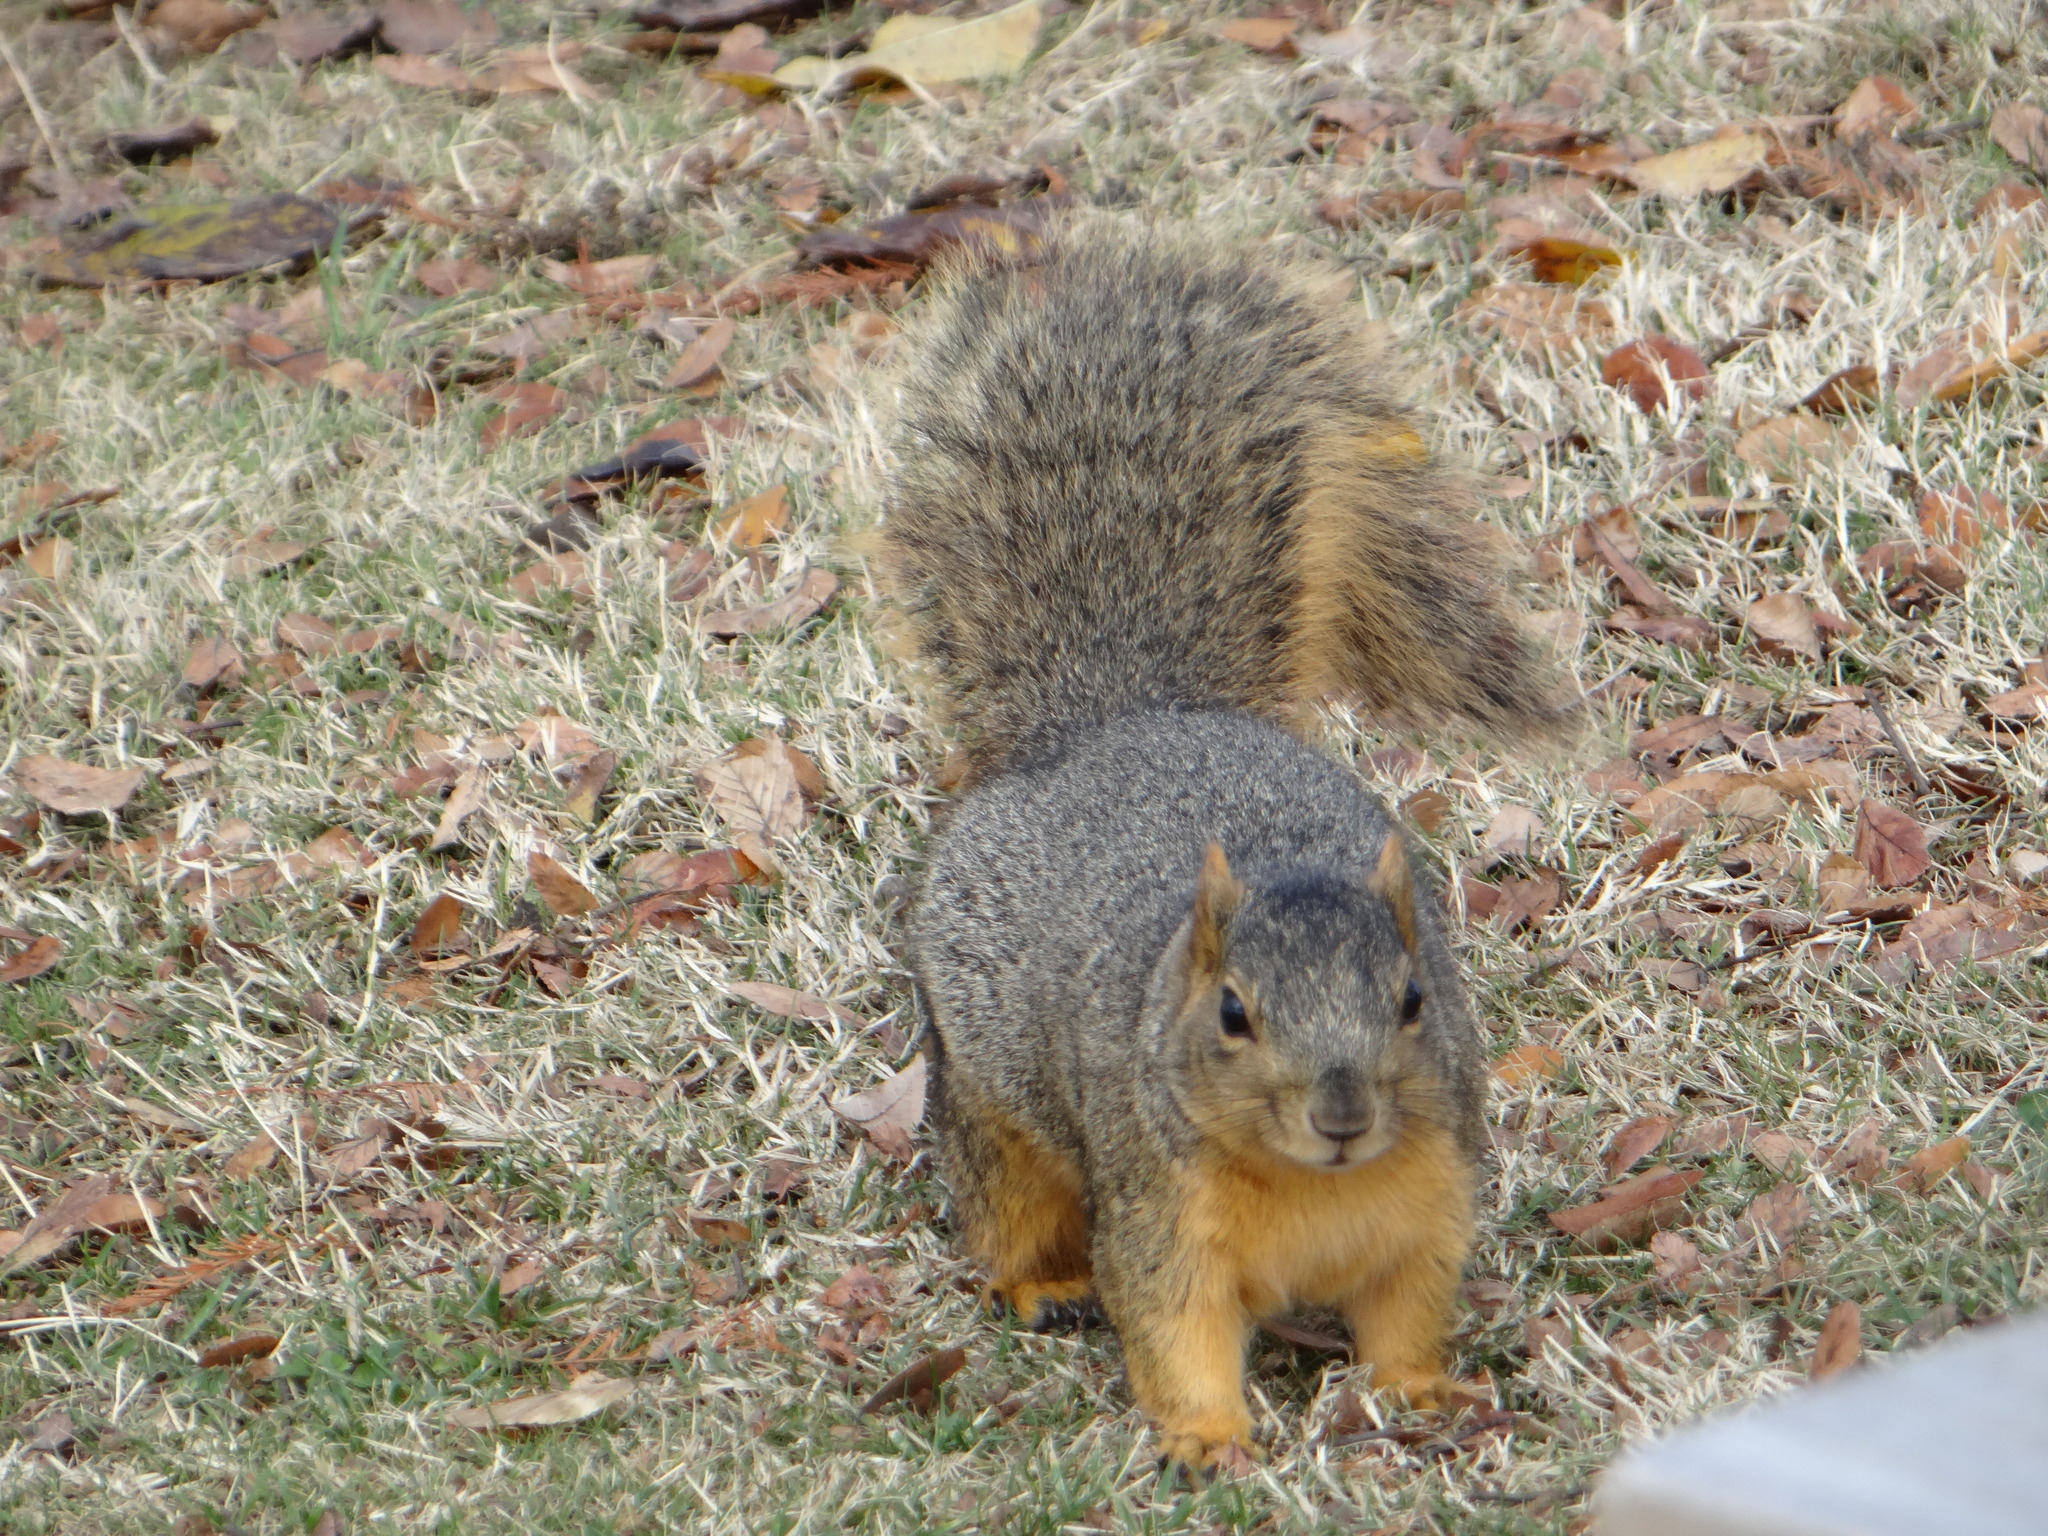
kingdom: Animalia
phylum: Chordata
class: Mammalia
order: Rodentia
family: Sciuridae
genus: Sciurus
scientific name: Sciurus niger
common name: Fox squirrel
